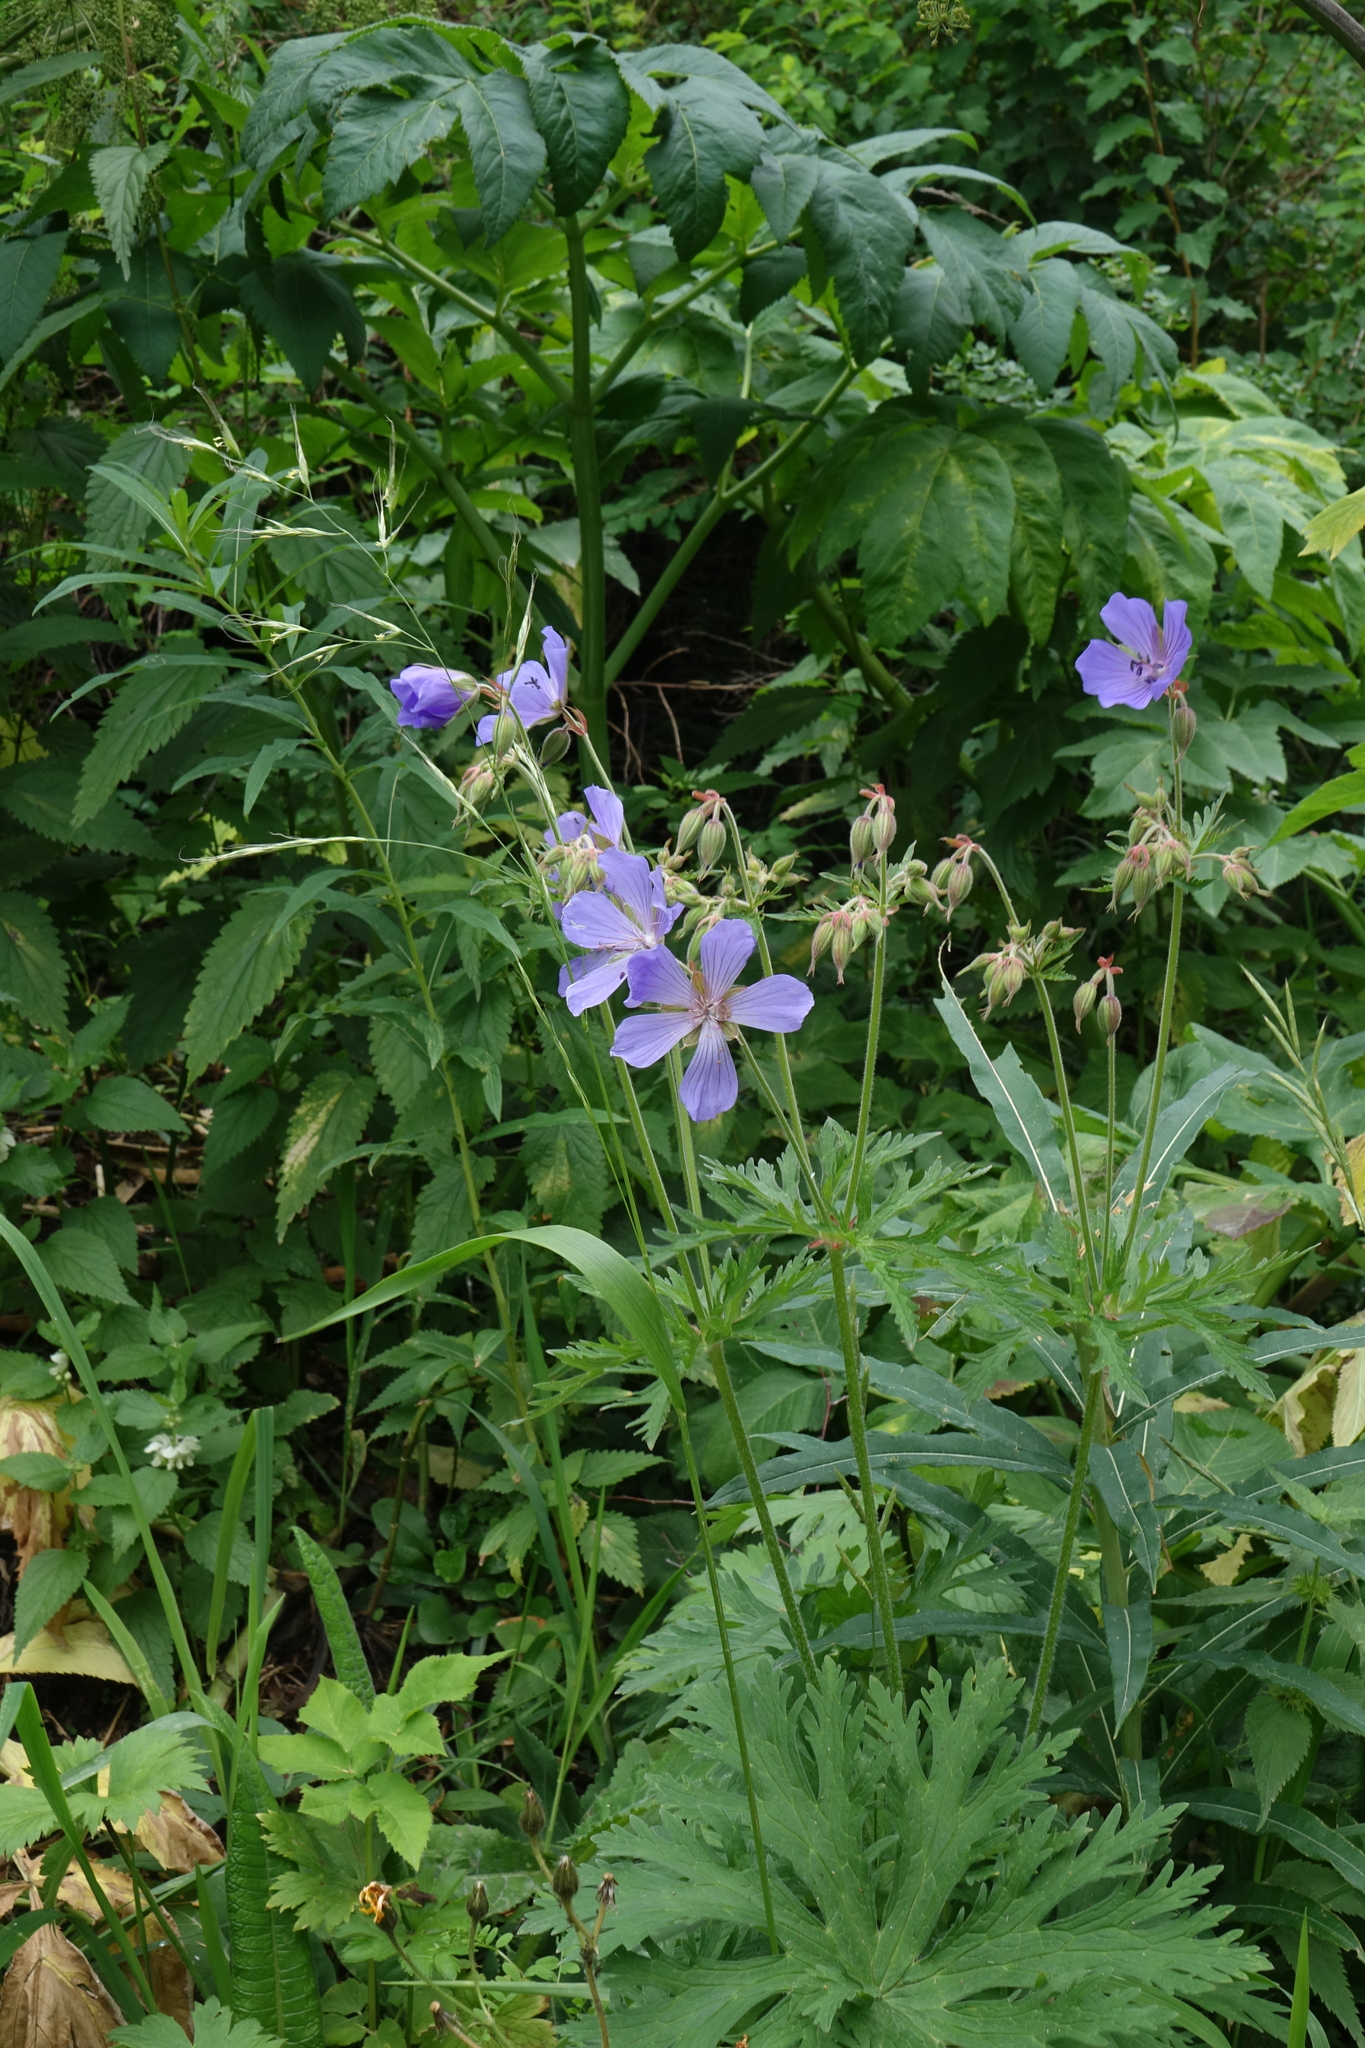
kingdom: Plantae
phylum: Tracheophyta
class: Magnoliopsida
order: Geraniales
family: Geraniaceae
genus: Geranium
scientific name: Geranium pratense
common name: Meadow crane's-bill
